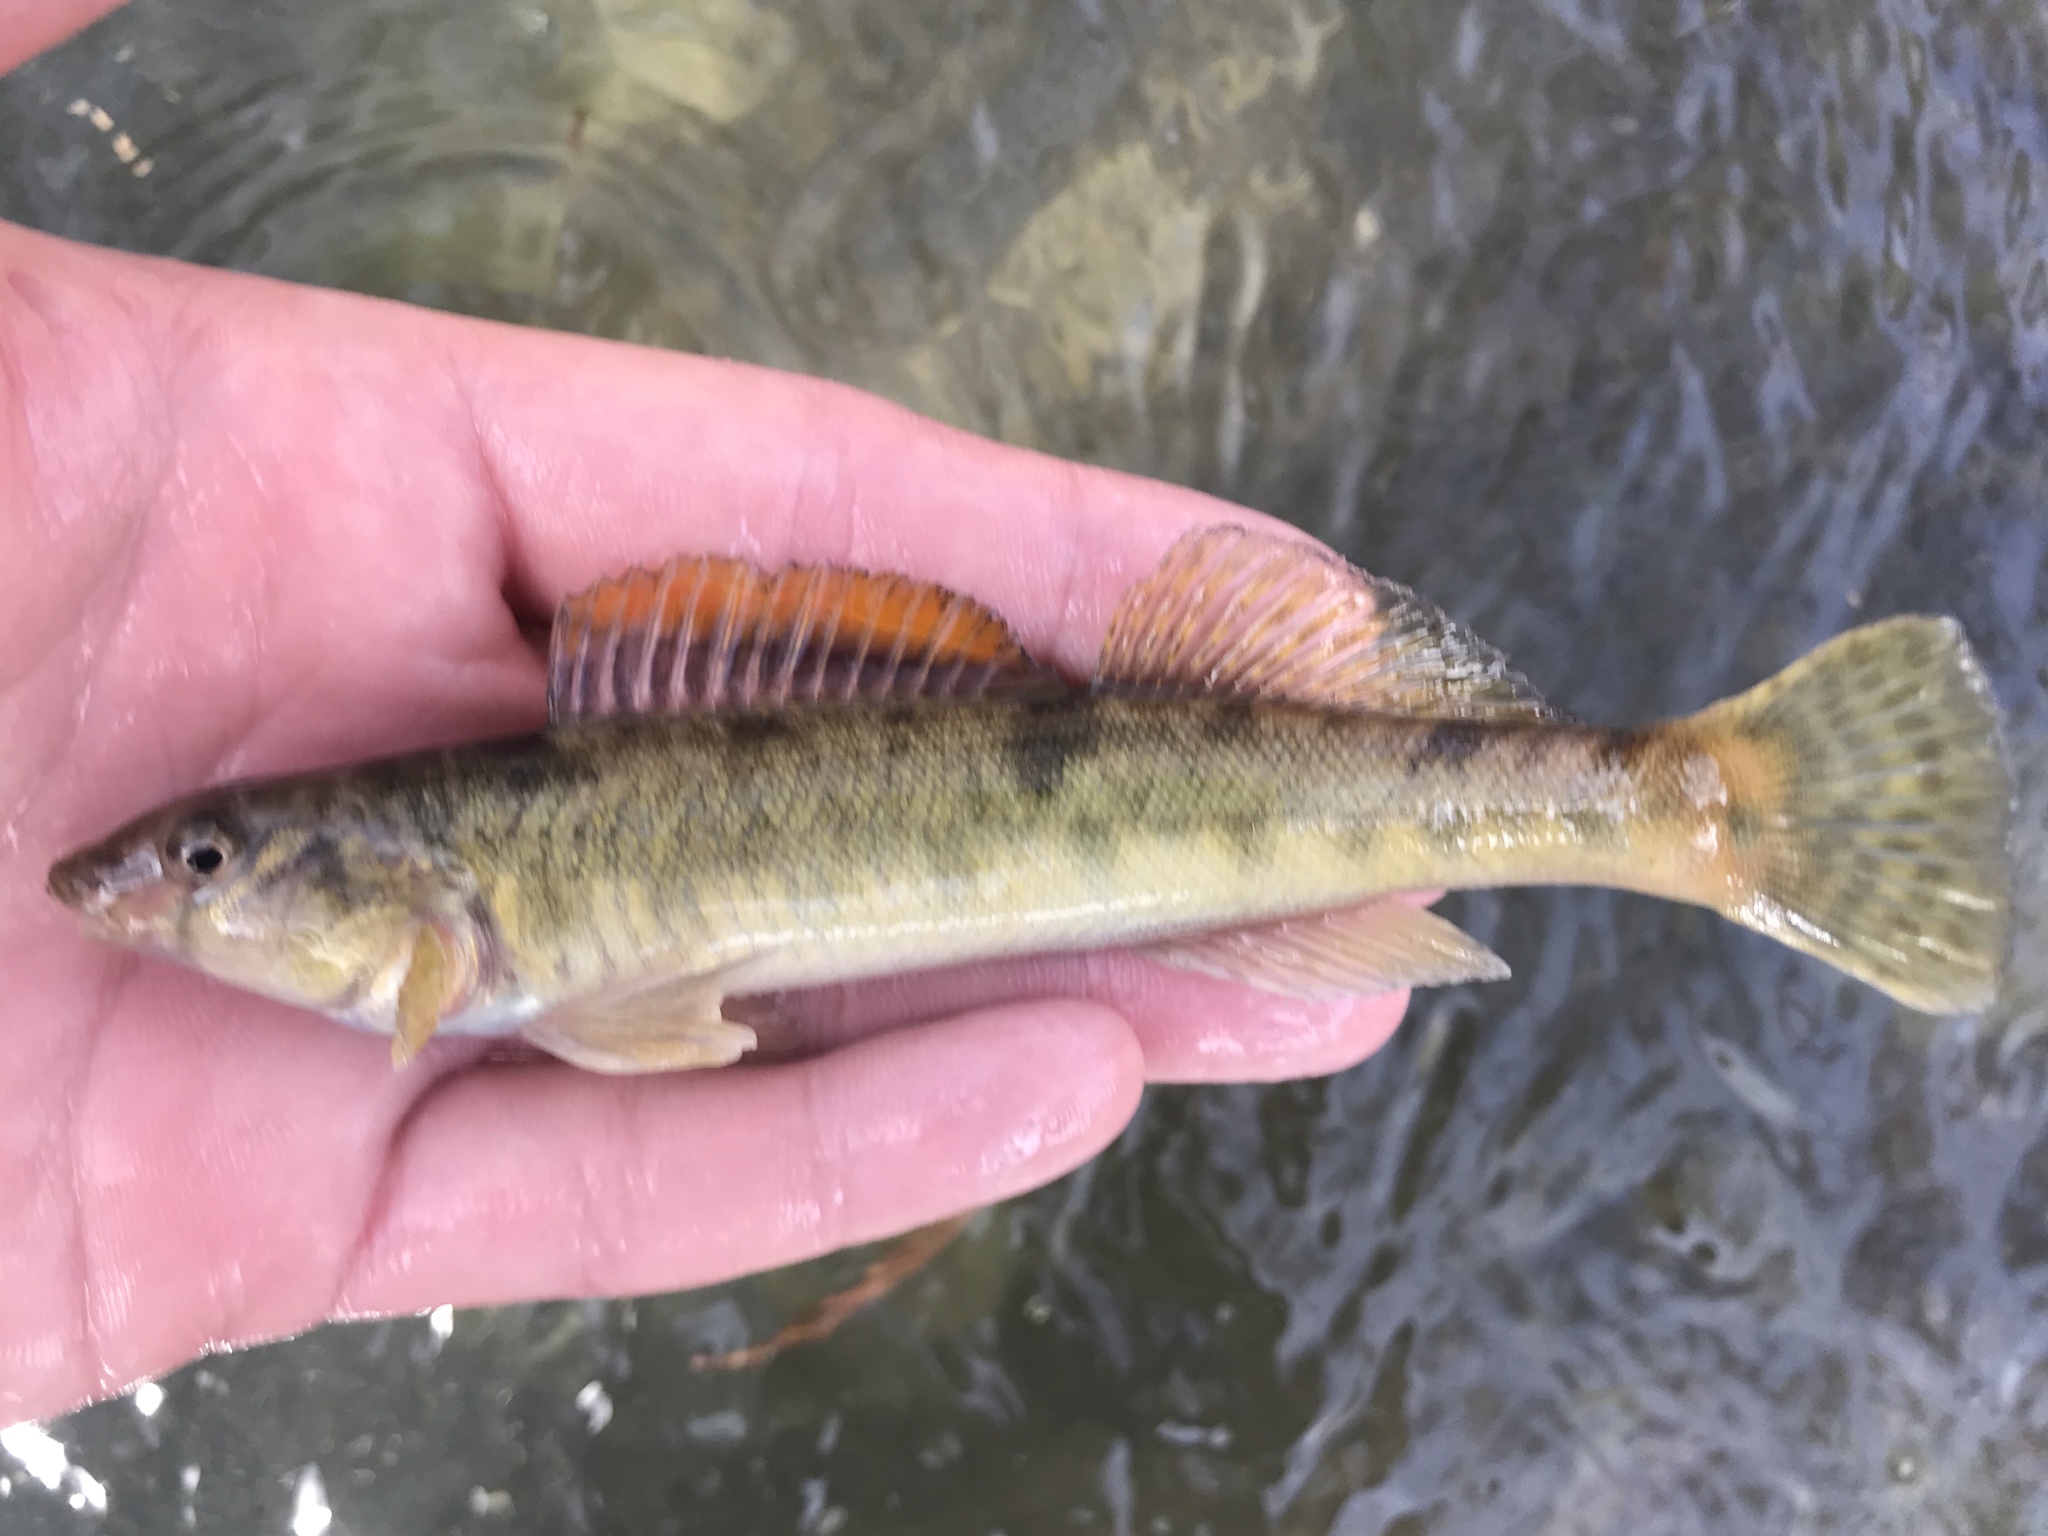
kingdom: Animalia
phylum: Chordata
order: Perciformes
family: Percidae
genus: Percina
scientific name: Percina carbonaria
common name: Texas logperch
